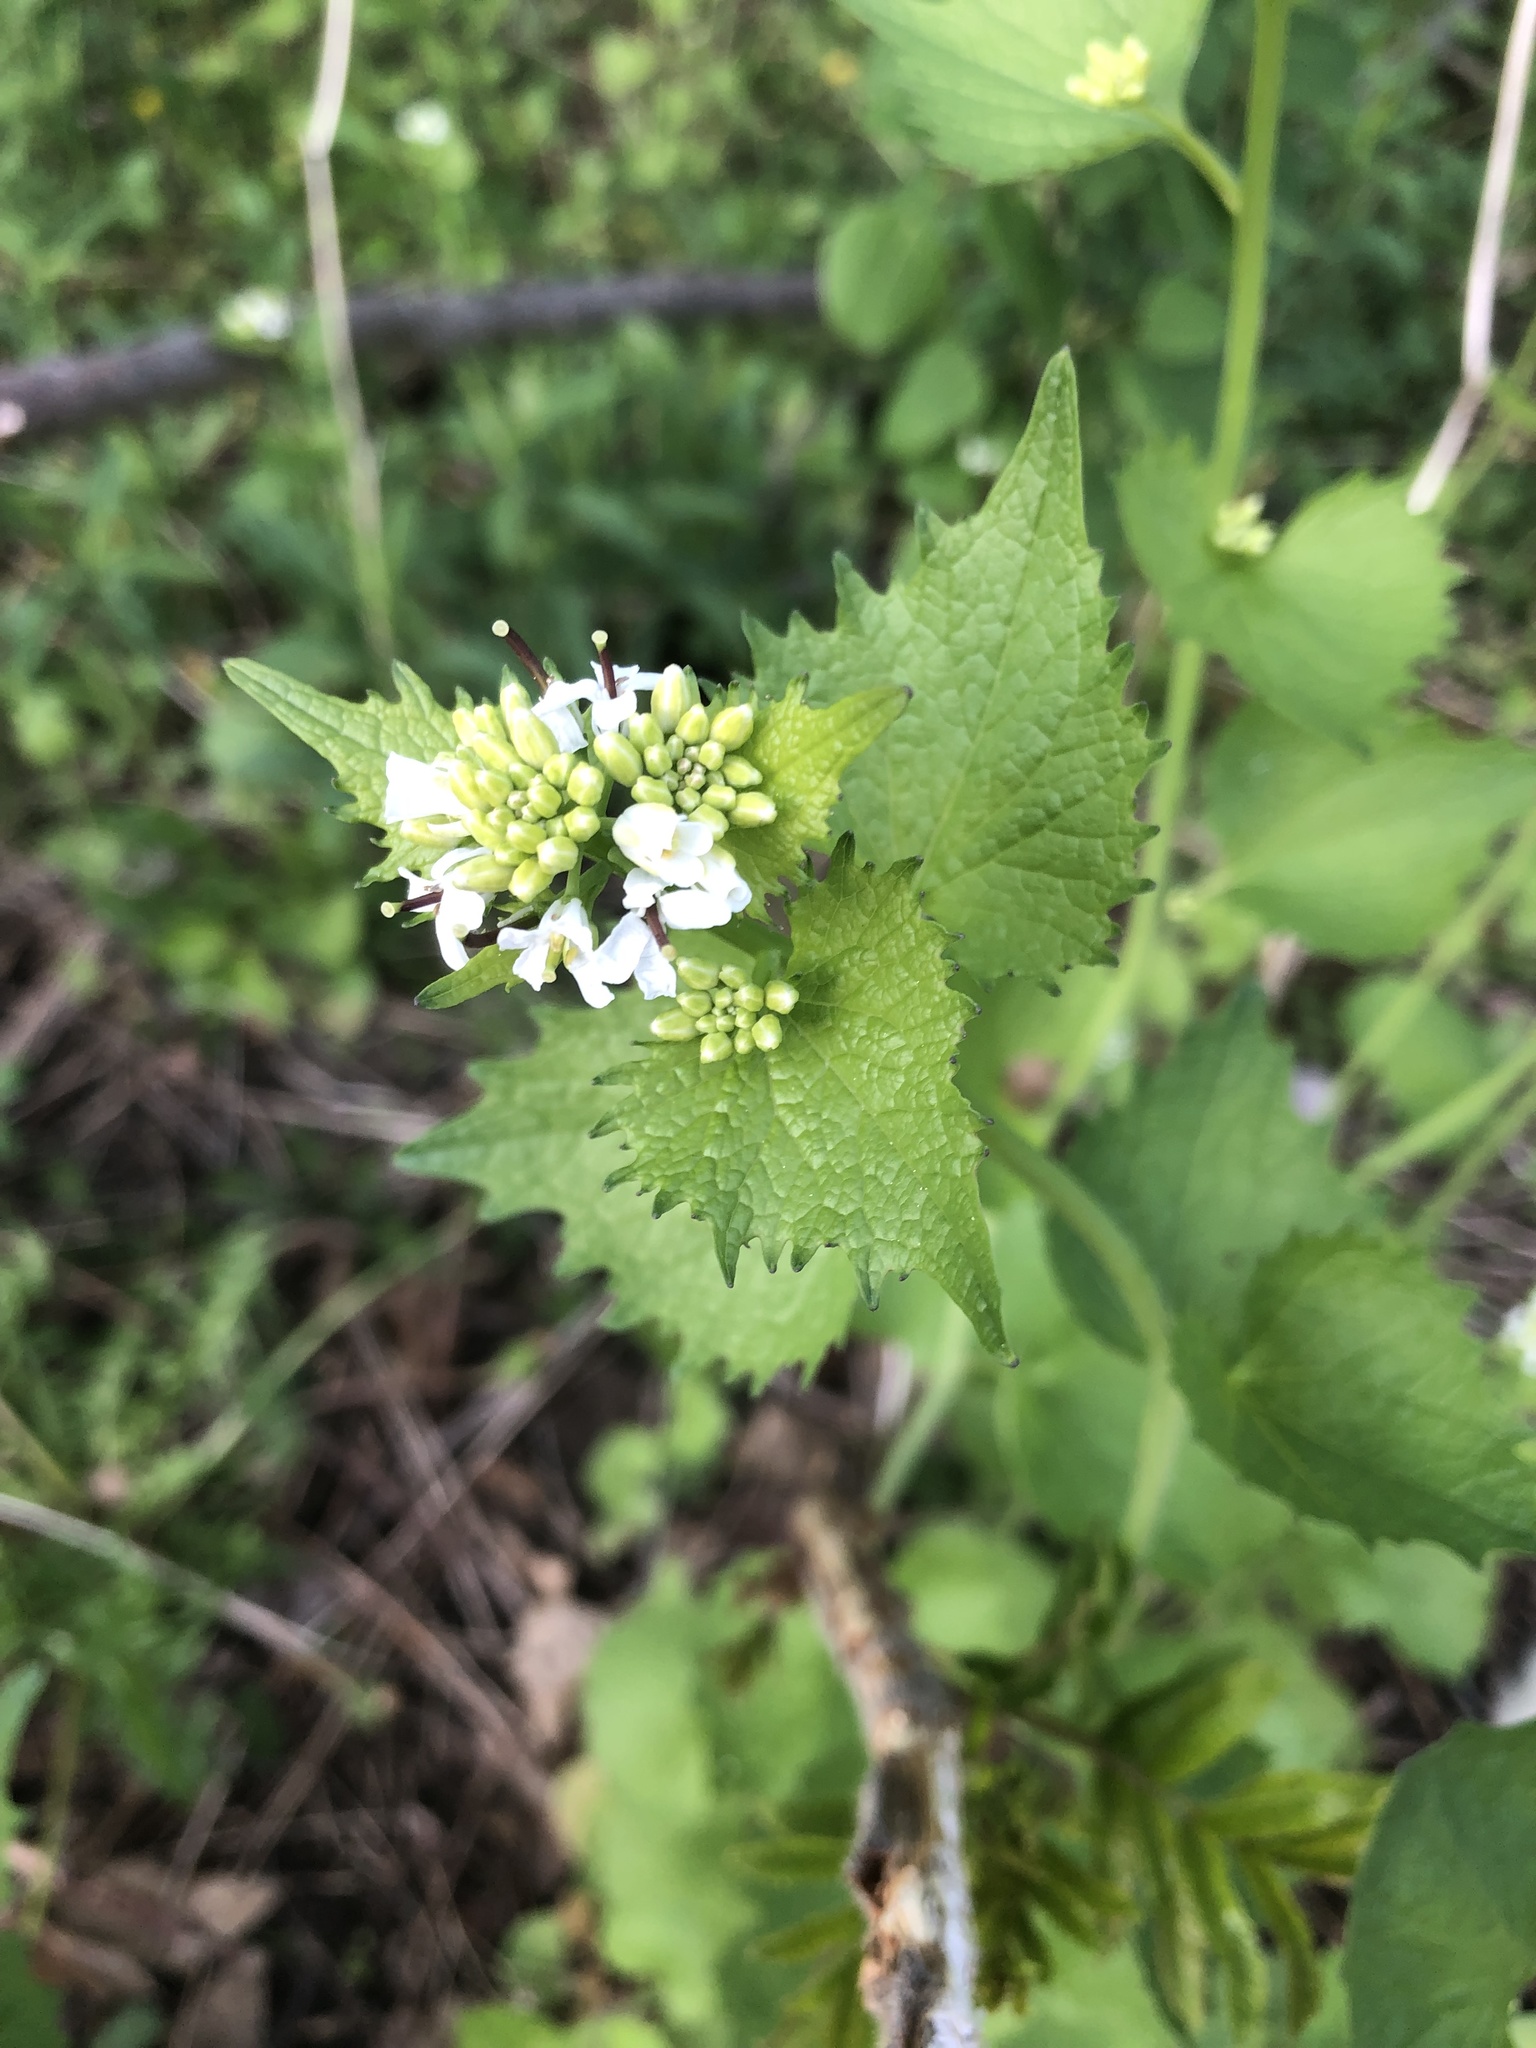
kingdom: Plantae
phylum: Tracheophyta
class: Magnoliopsida
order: Brassicales
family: Brassicaceae
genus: Alliaria
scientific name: Alliaria petiolata
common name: Garlic mustard
